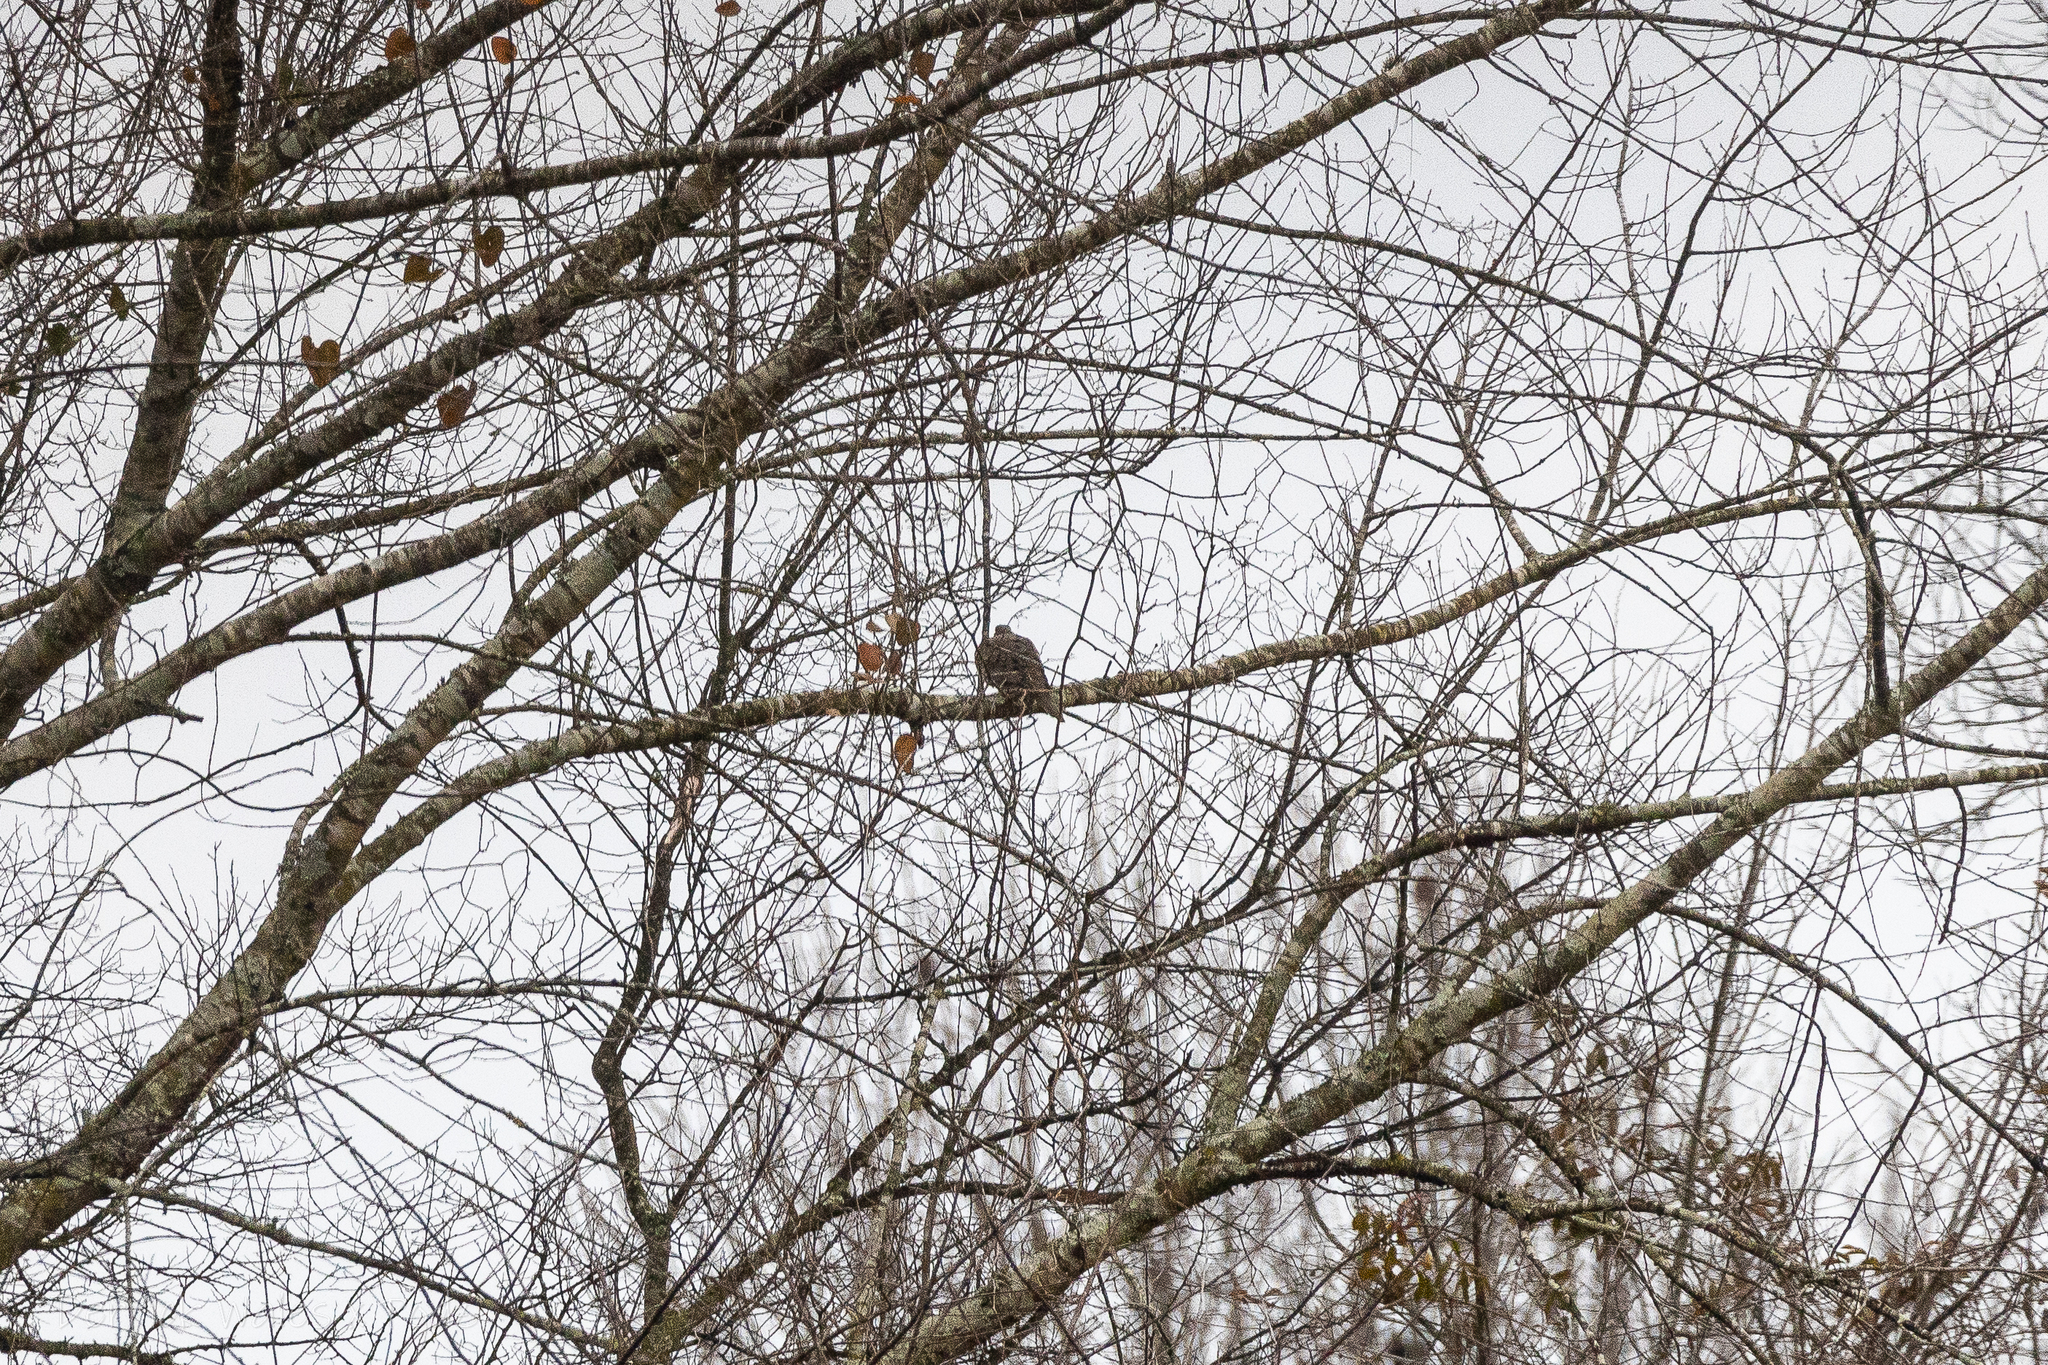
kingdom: Animalia
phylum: Chordata
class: Aves
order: Columbiformes
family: Columbidae
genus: Zenaida
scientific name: Zenaida macroura
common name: Mourning dove
